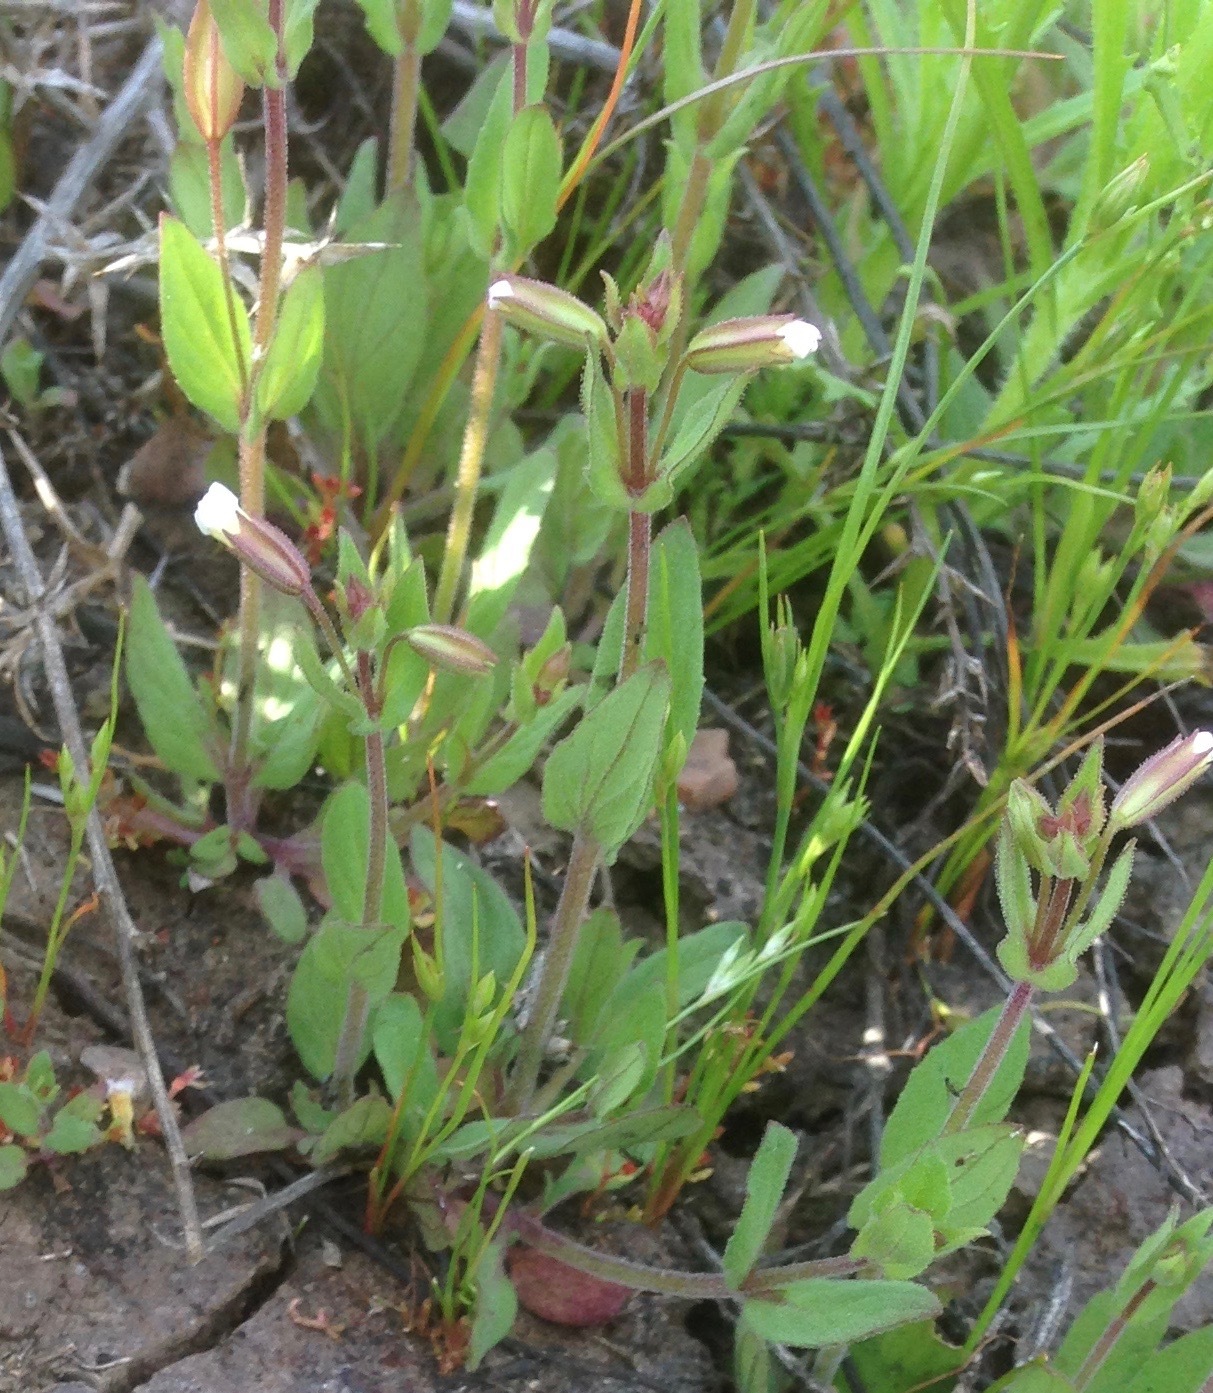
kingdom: Plantae
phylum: Tracheophyta
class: Magnoliopsida
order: Lamiales
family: Phrymaceae
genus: Erythranthe
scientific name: Erythranthe latidens
